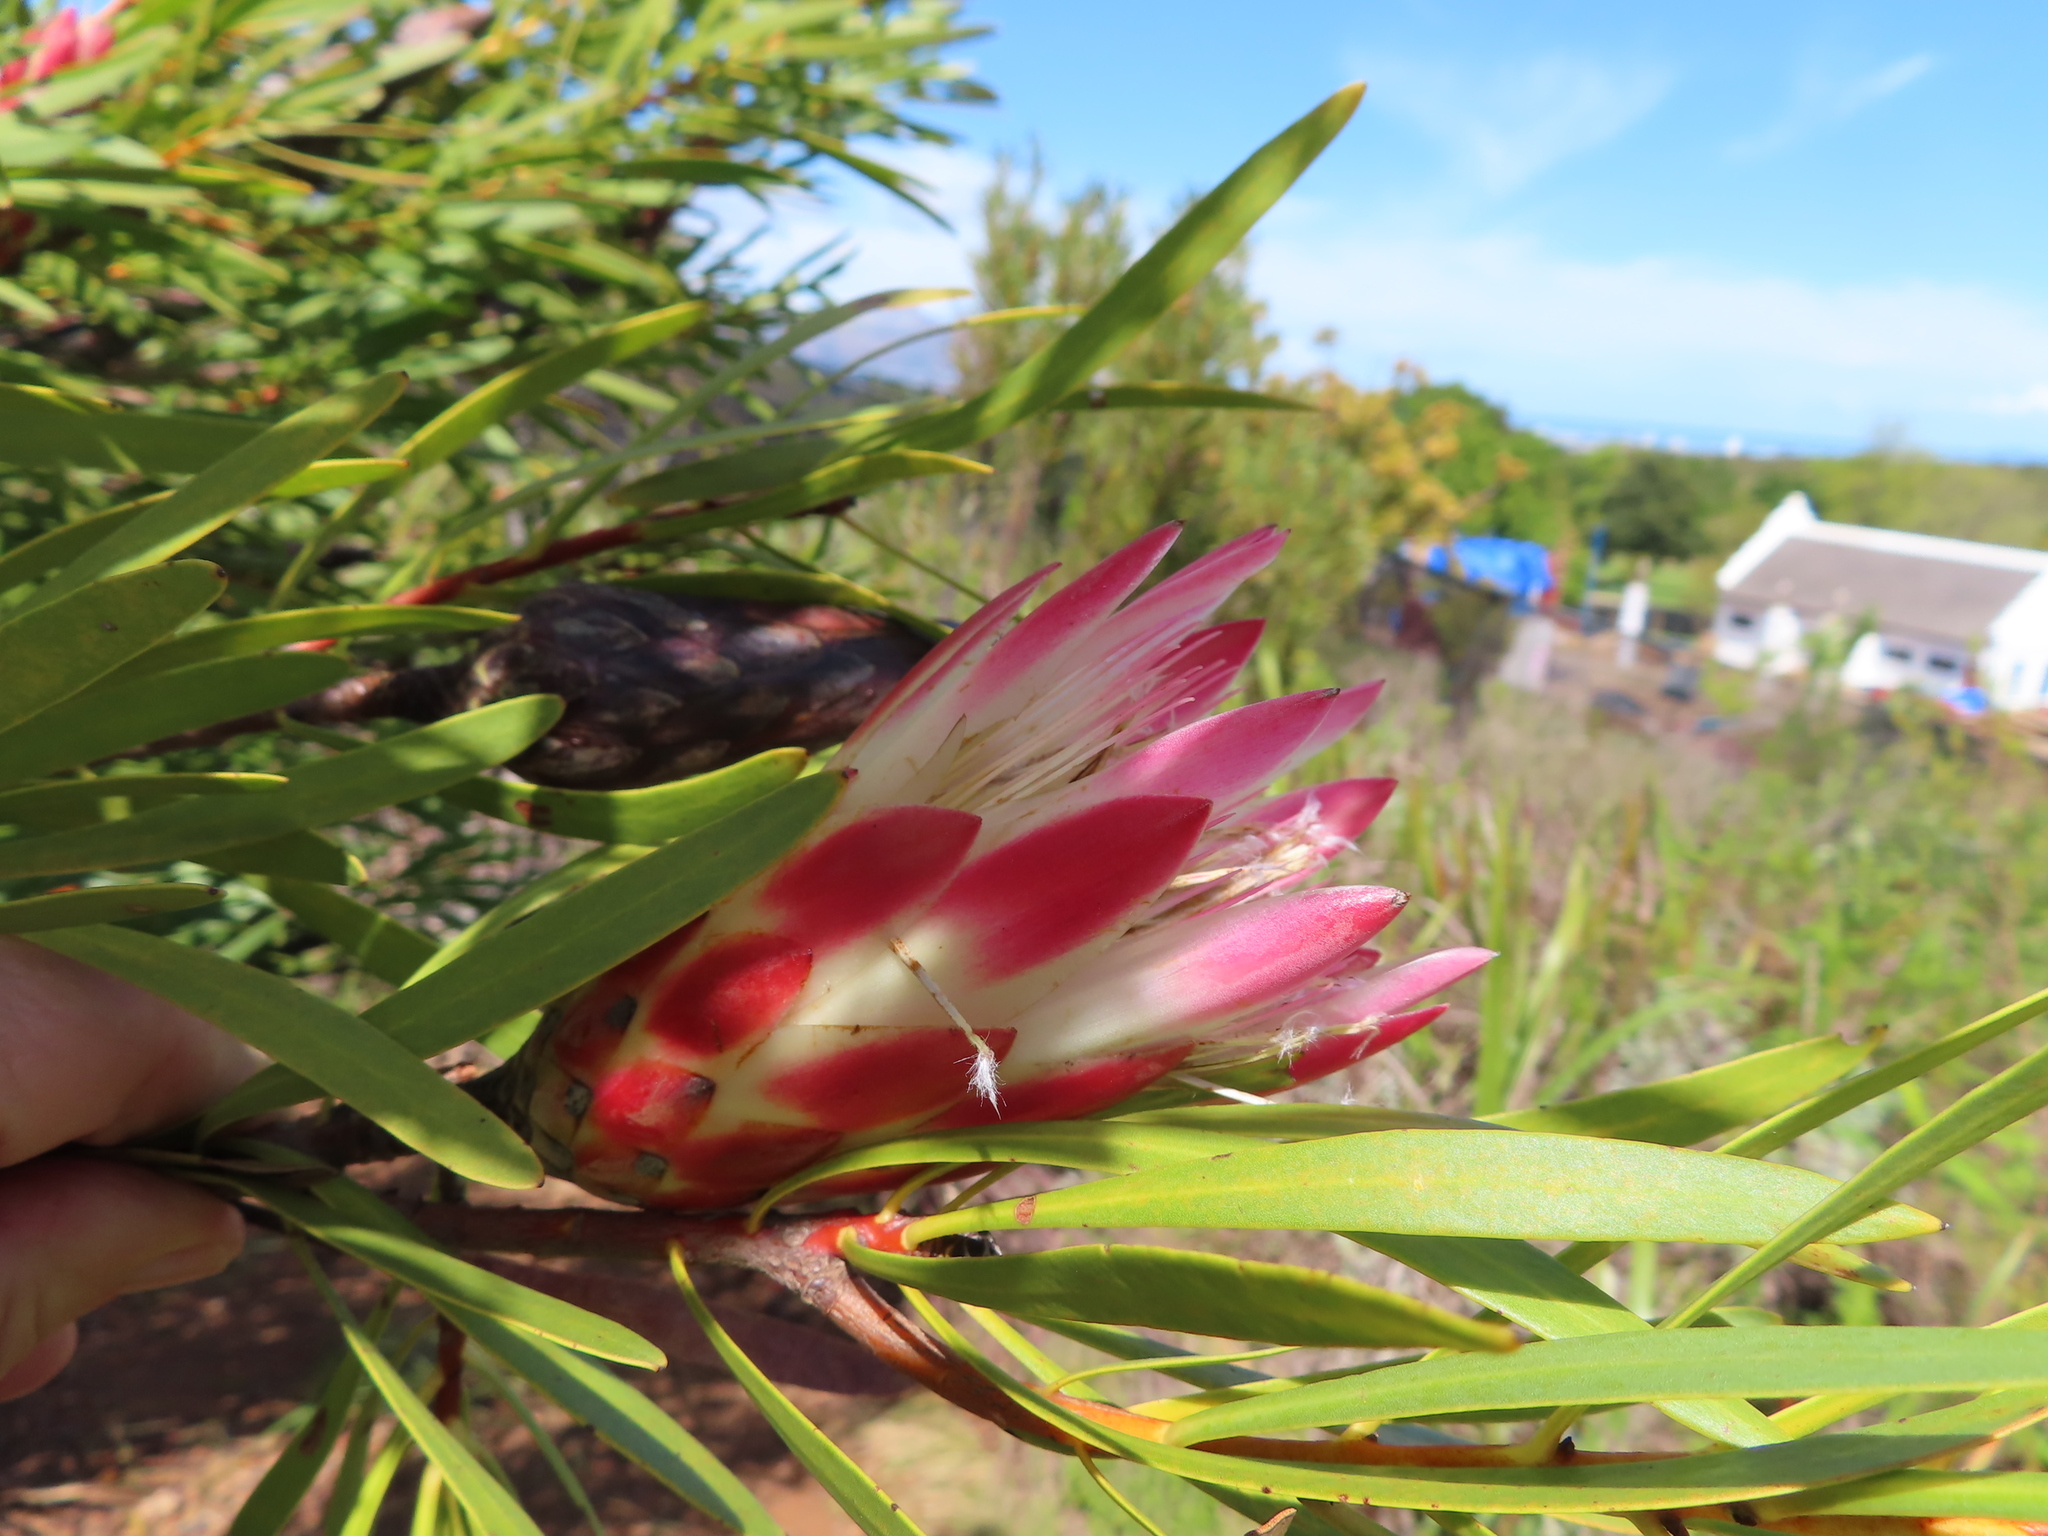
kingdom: Plantae
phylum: Tracheophyta
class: Magnoliopsida
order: Proteales
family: Proteaceae
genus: Protea
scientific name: Protea repens
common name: Sugarbush
